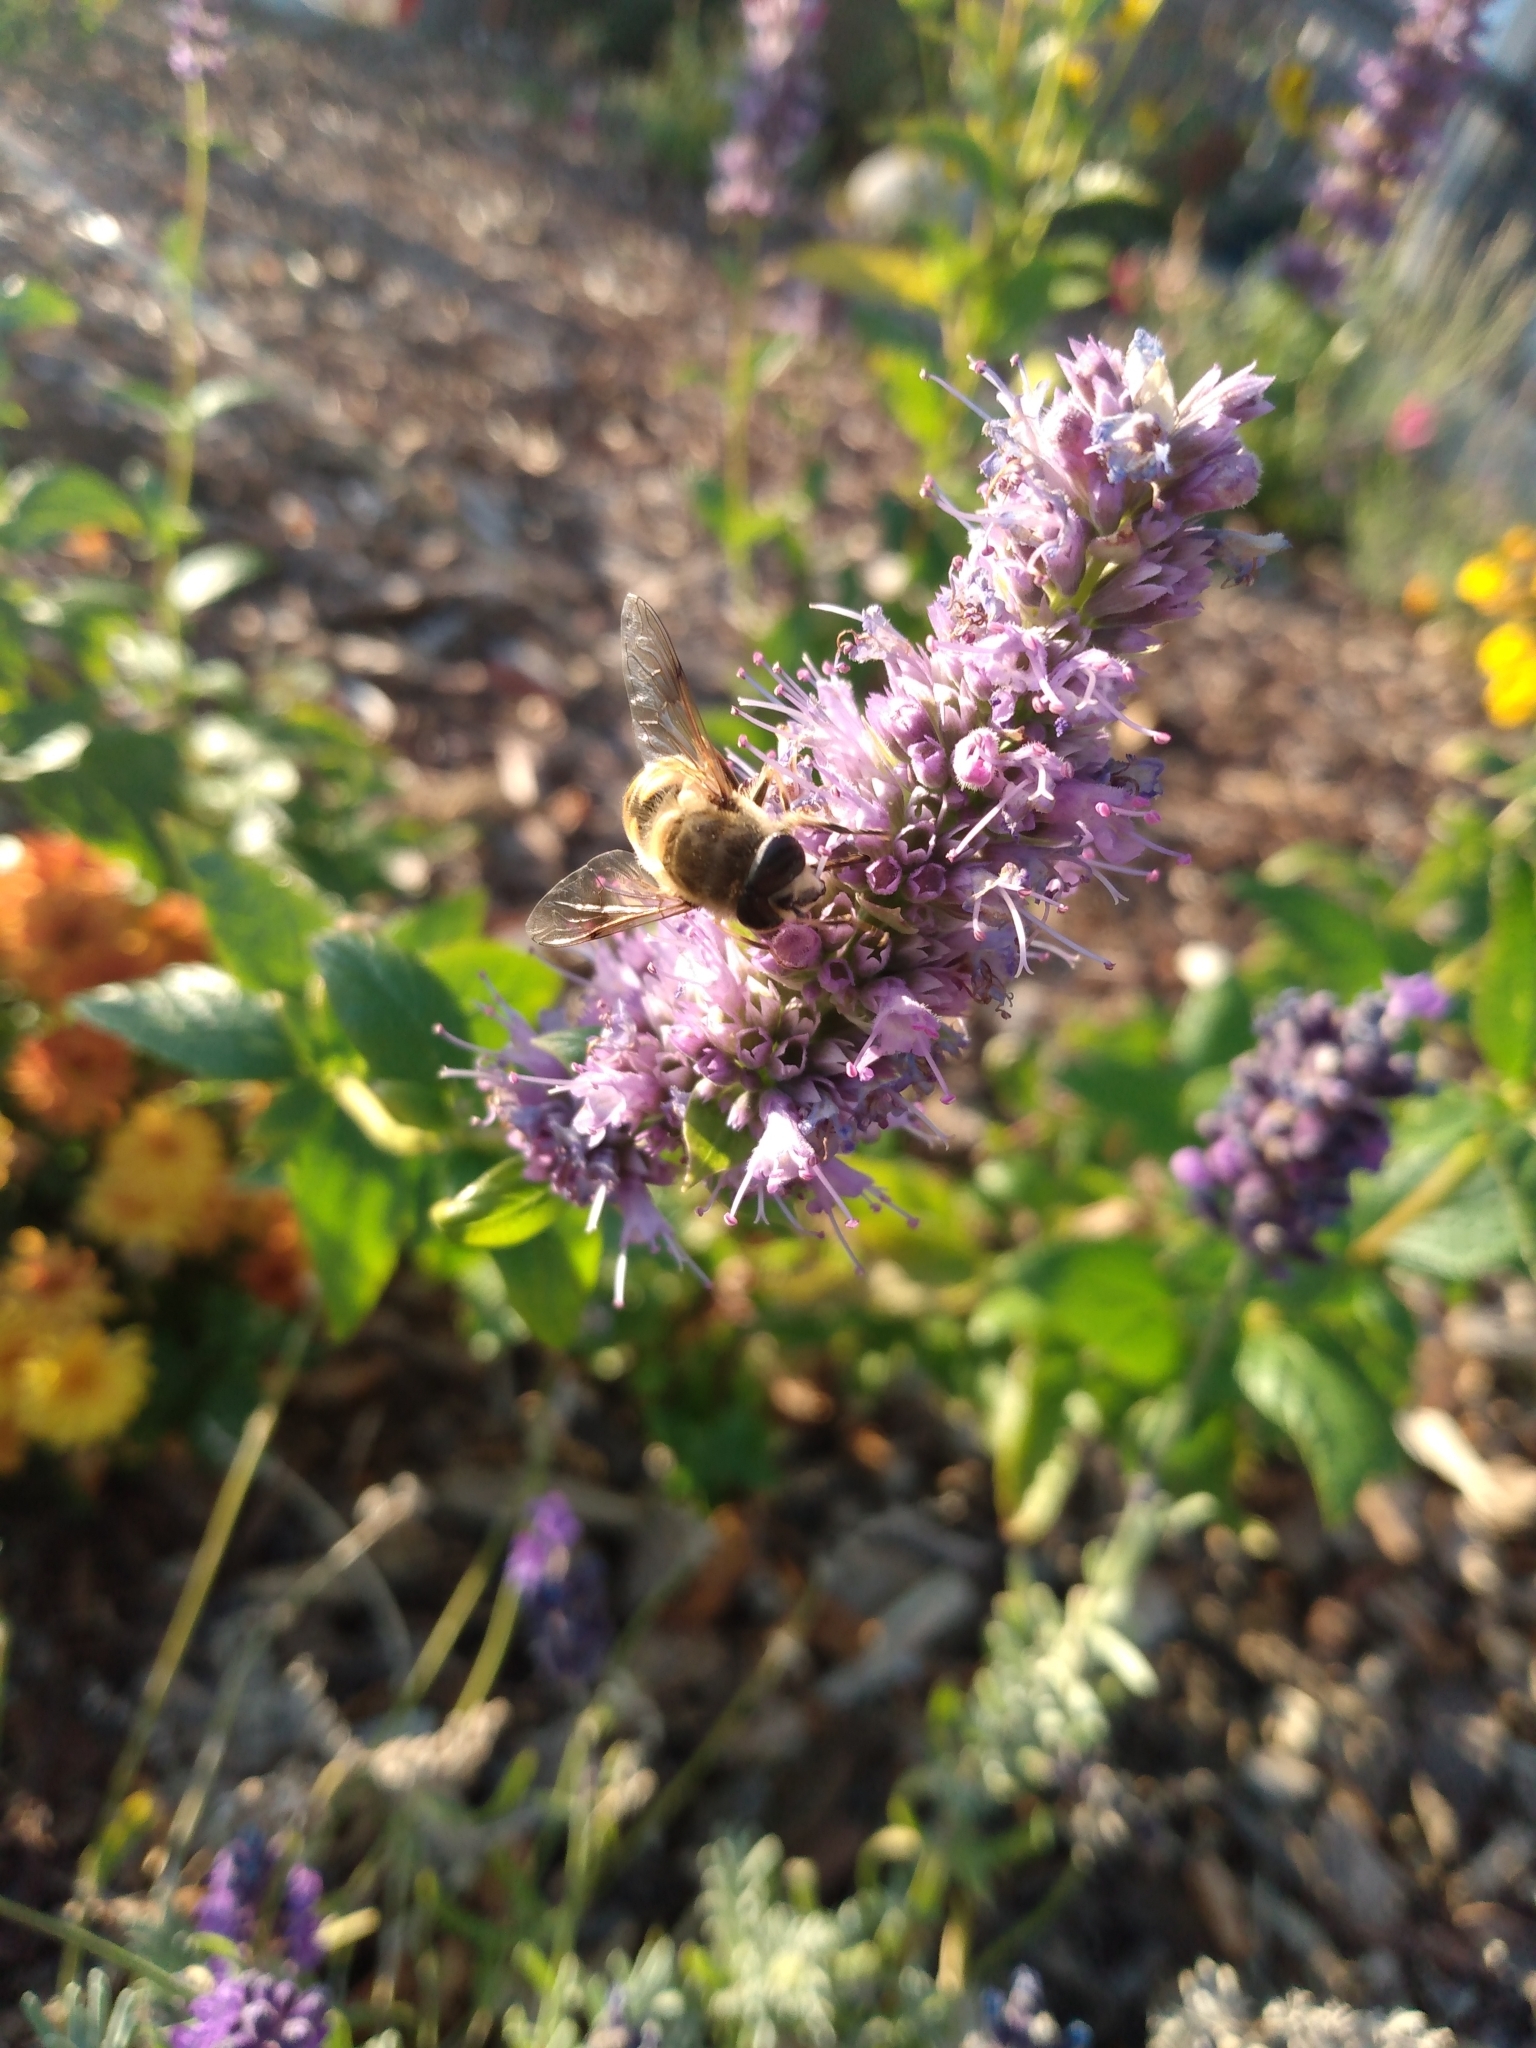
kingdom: Animalia
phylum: Arthropoda
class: Insecta
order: Diptera
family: Syrphidae
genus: Eristalis
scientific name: Eristalis tenax
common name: Drone fly
